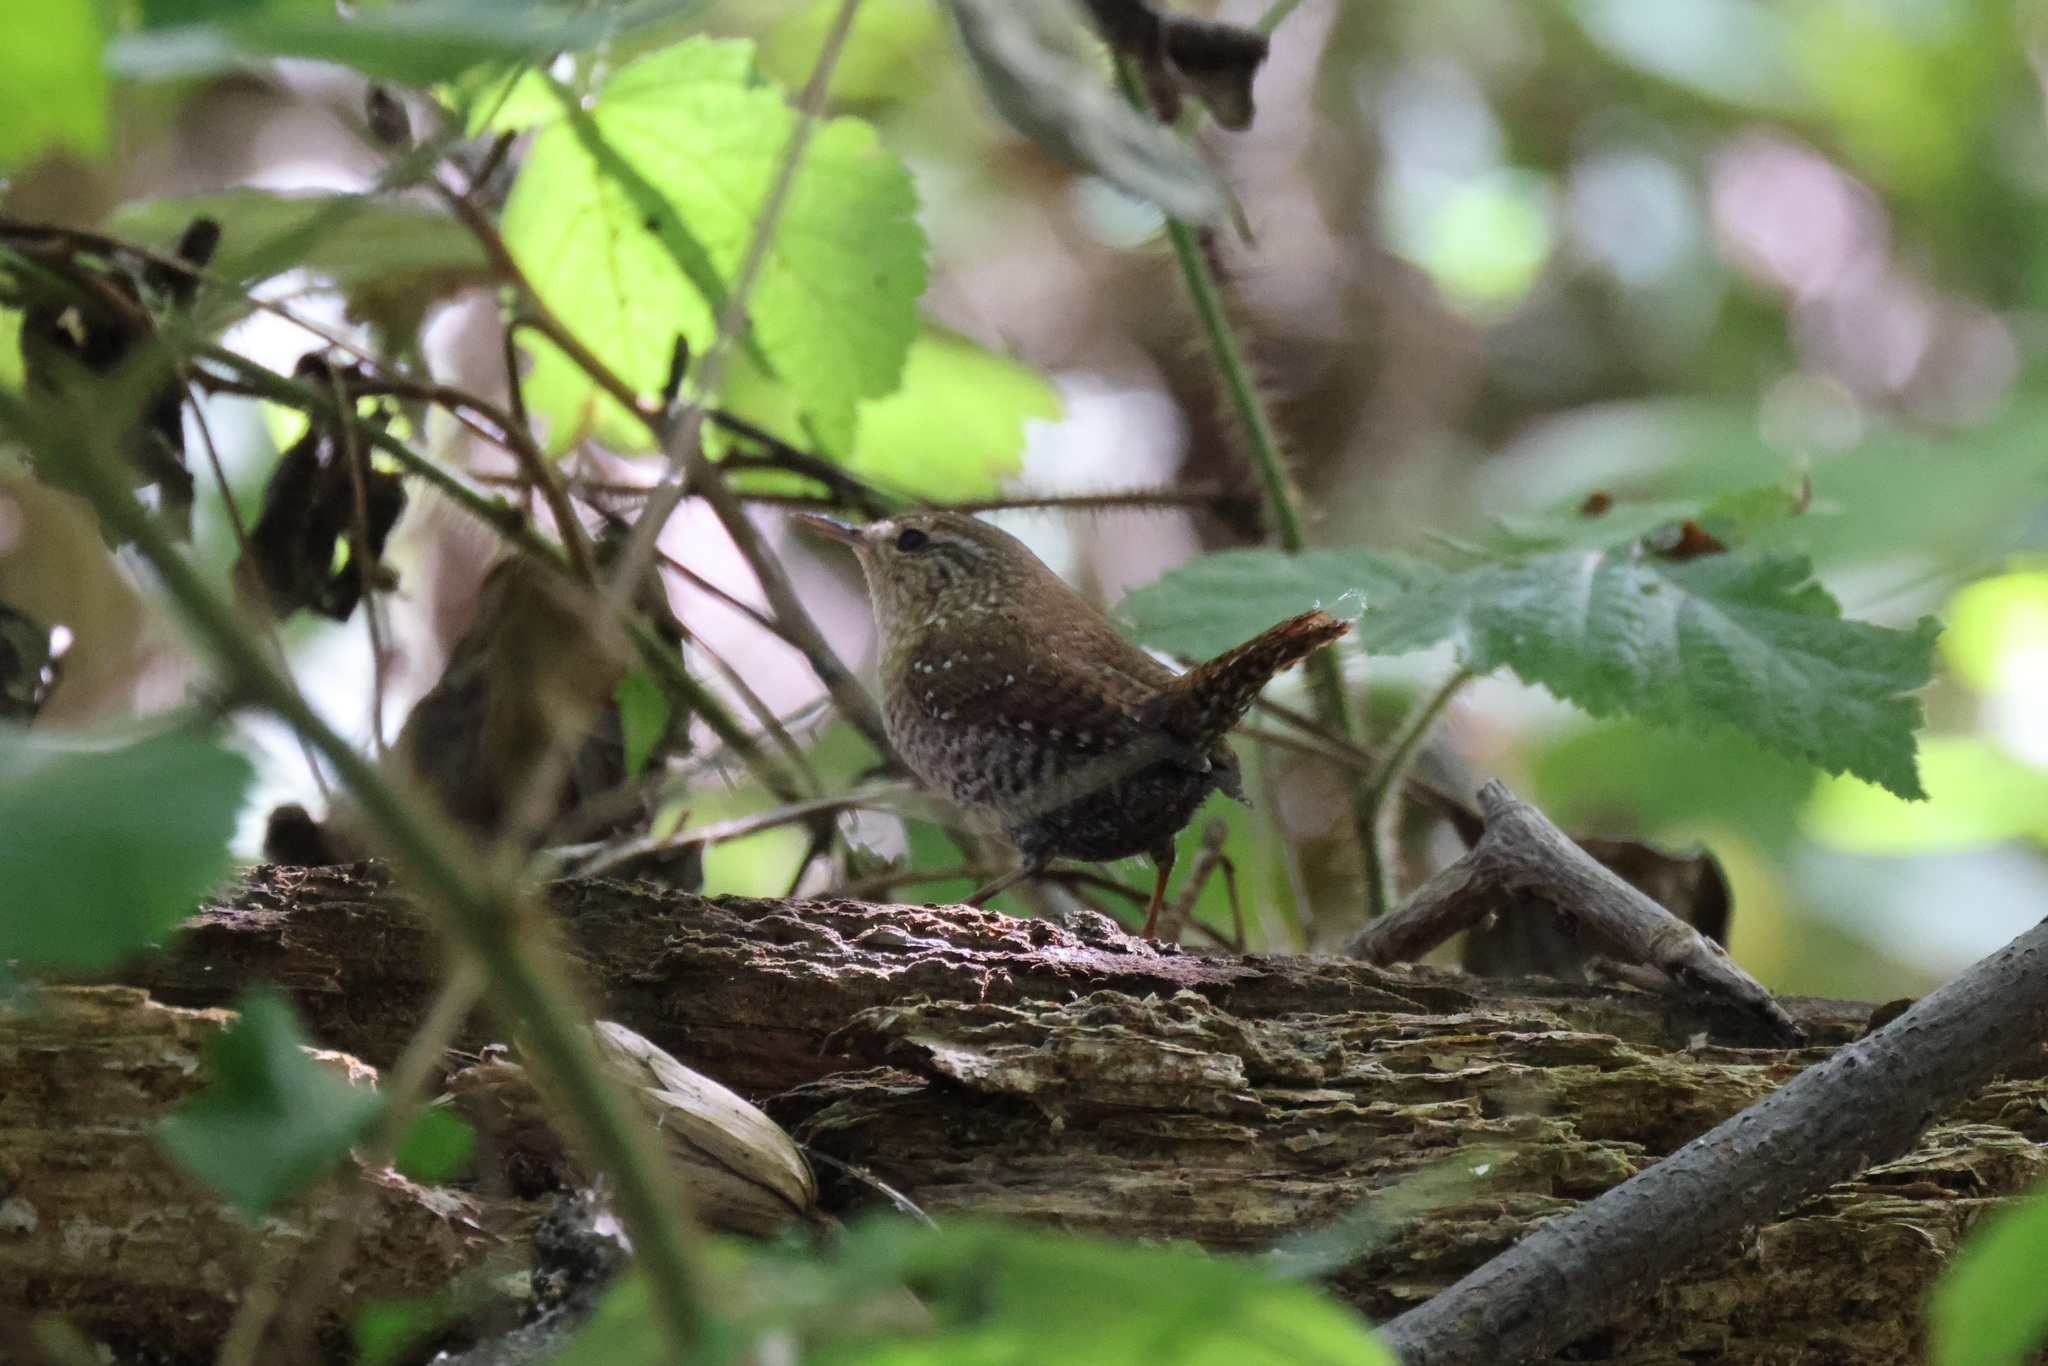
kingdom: Animalia
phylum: Chordata
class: Aves
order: Passeriformes
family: Troglodytidae
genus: Troglodytes
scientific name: Troglodytes hiemalis
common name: Winter wren
